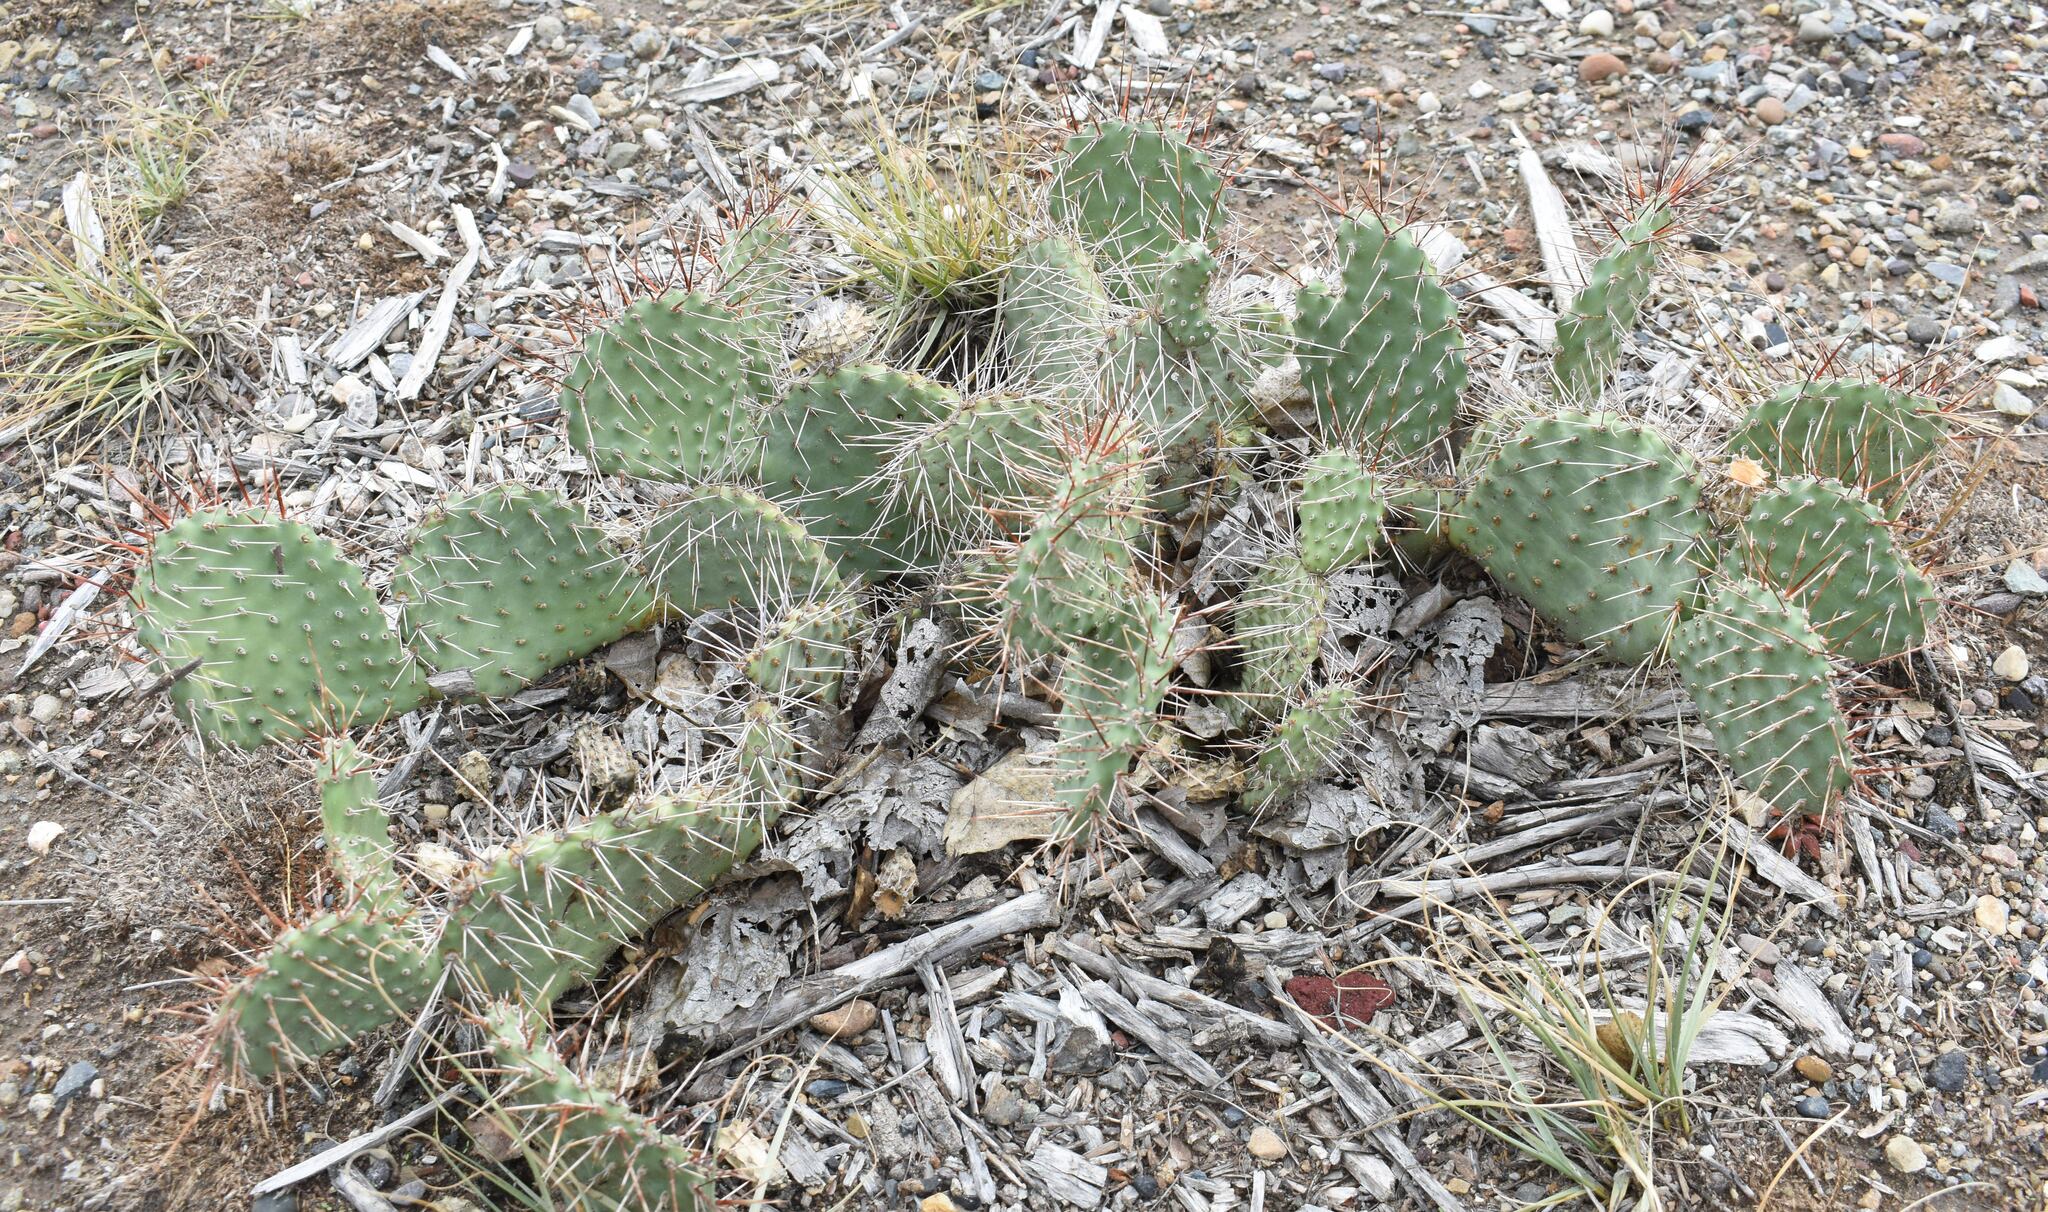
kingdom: Plantae
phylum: Tracheophyta
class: Magnoliopsida
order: Caryophyllales
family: Cactaceae
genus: Opuntia
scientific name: Opuntia polyacantha
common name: Plains prickly-pear
